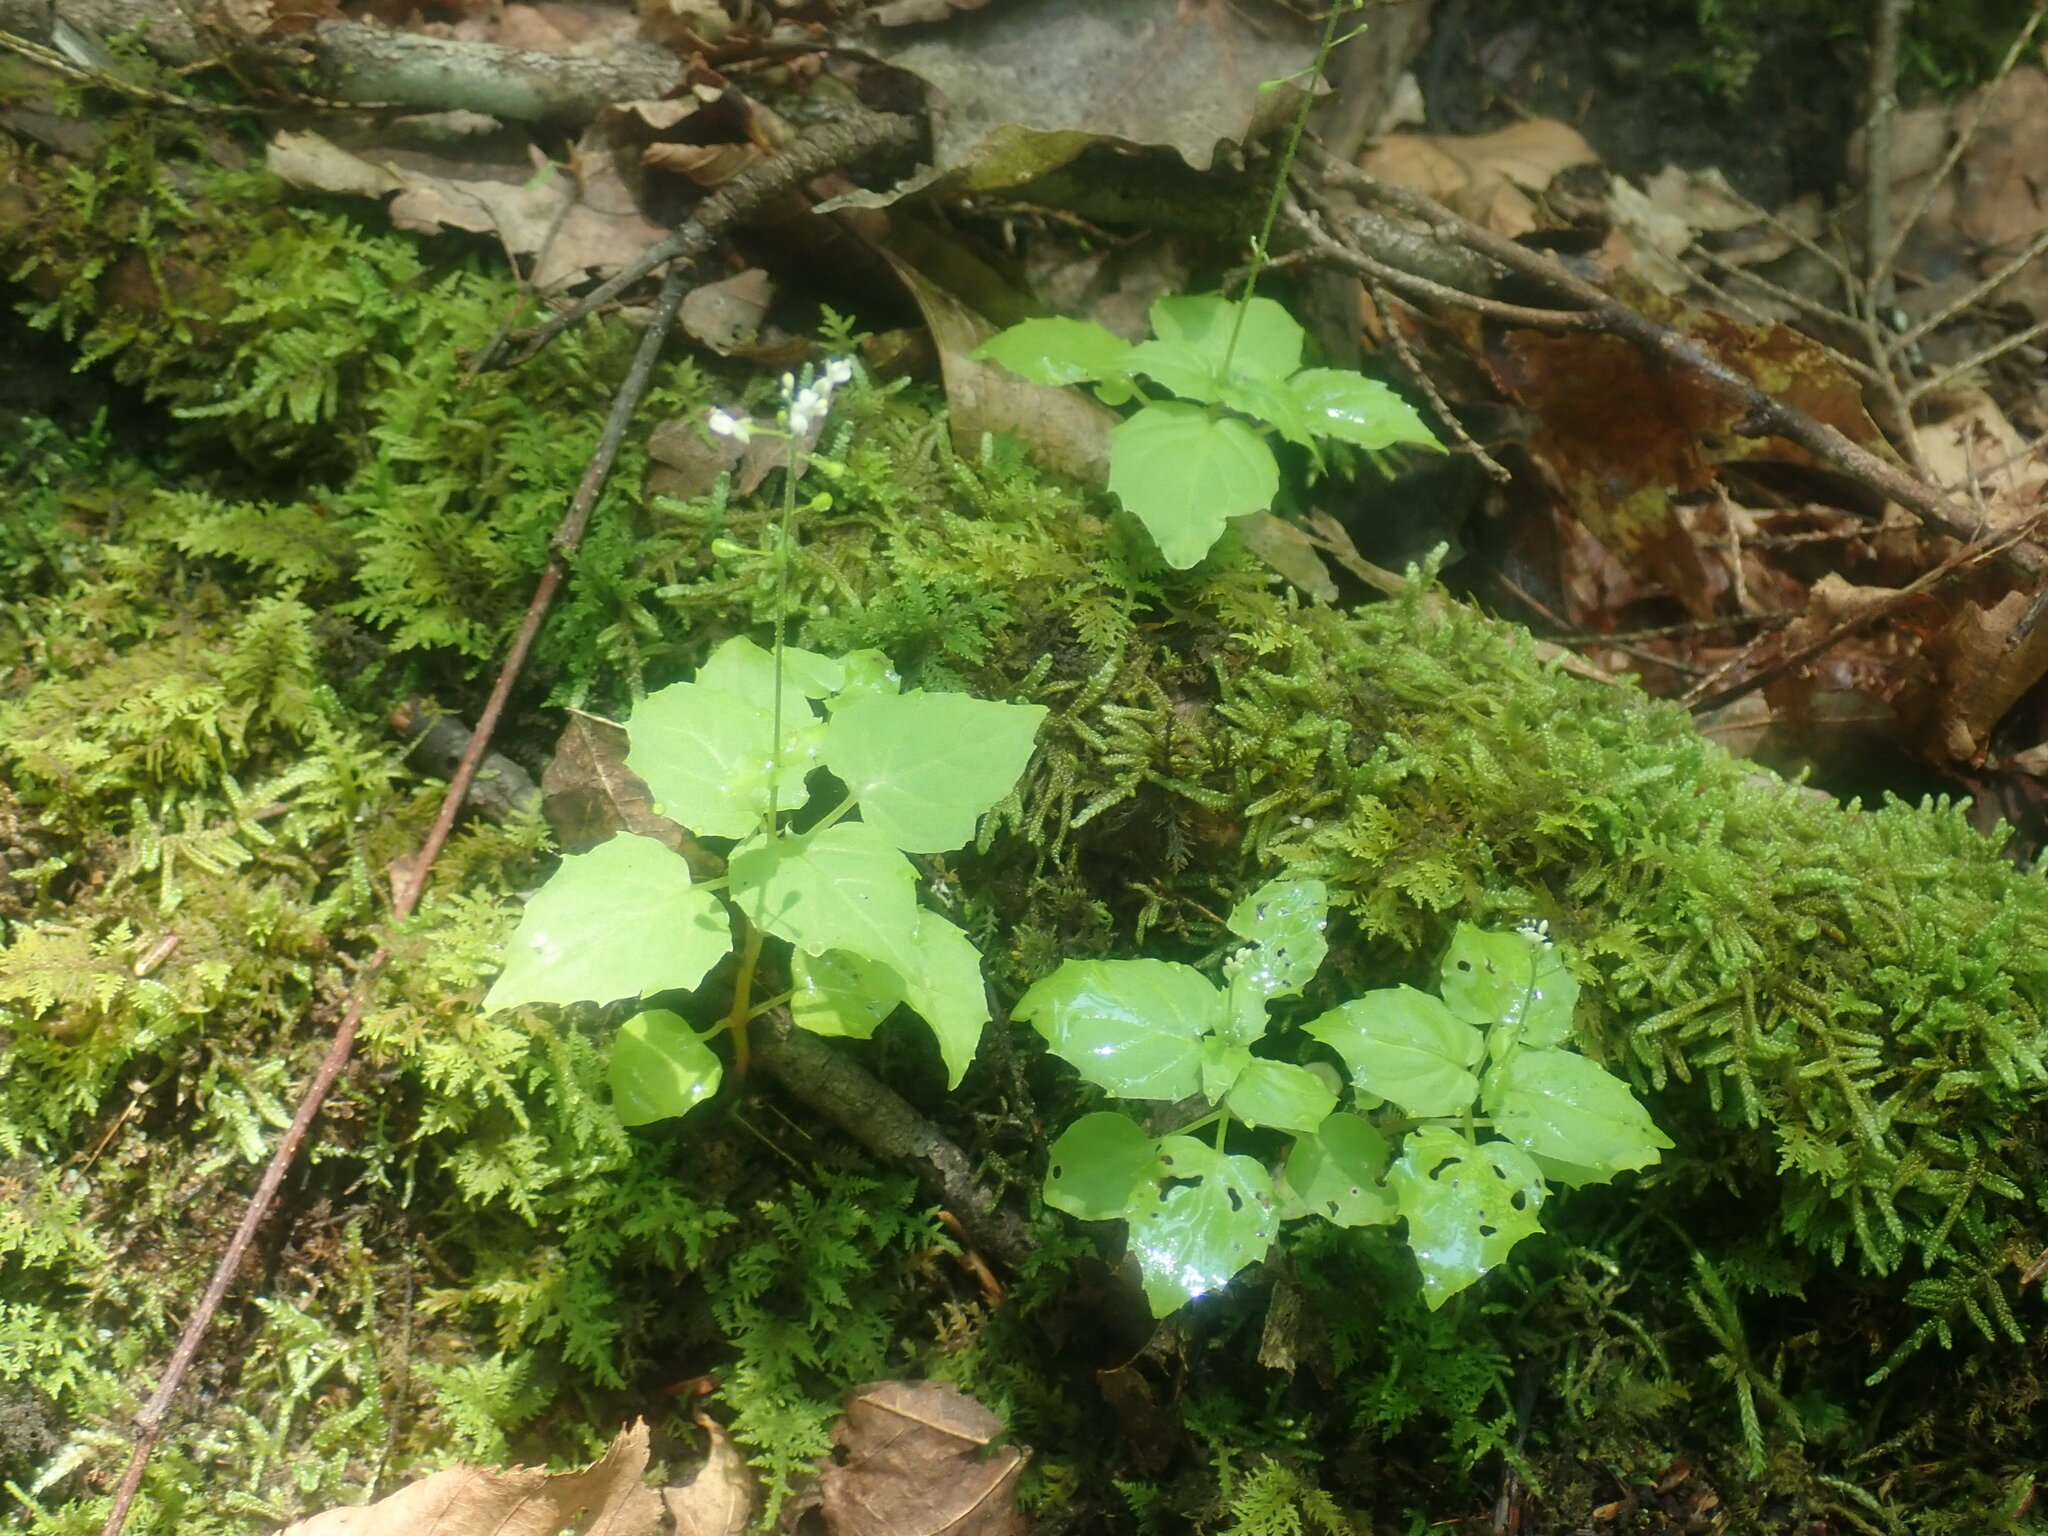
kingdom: Plantae
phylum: Tracheophyta
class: Magnoliopsida
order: Myrtales
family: Onagraceae
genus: Circaea
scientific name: Circaea alpina
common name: Alpine enchanter's-nightshade
